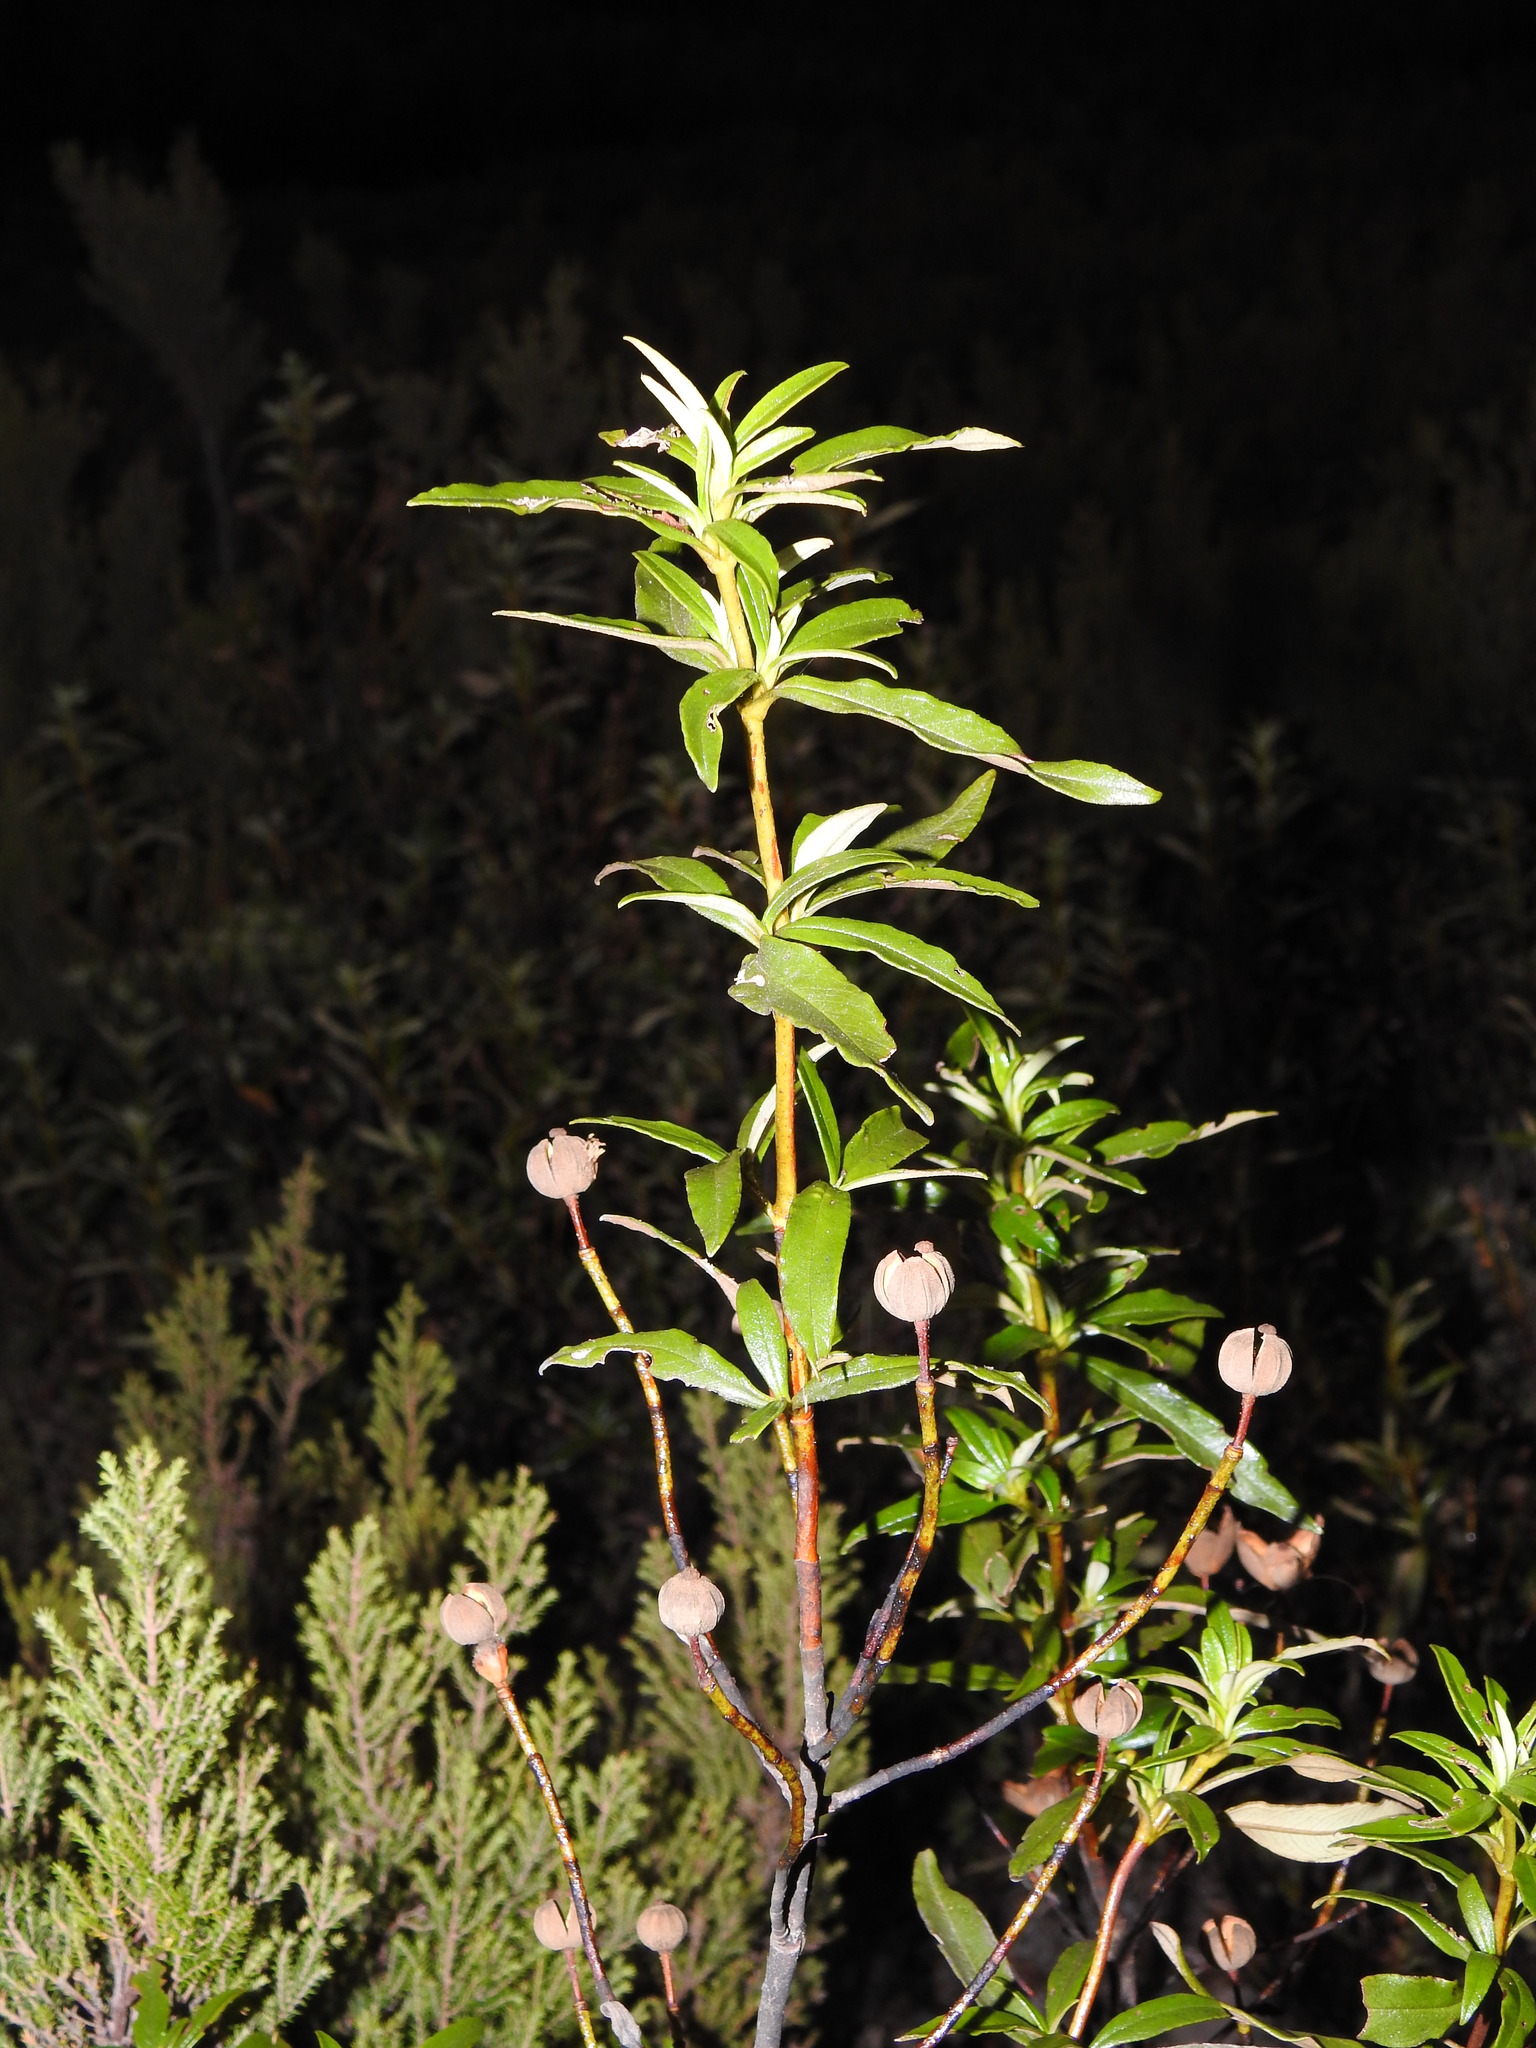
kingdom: Plantae
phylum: Tracheophyta
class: Magnoliopsida
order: Malvales
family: Cistaceae
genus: Cistus
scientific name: Cistus ladanifer
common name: Common gum cistus
